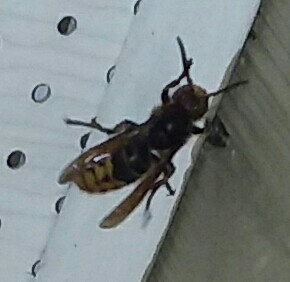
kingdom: Animalia
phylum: Arthropoda
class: Insecta
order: Hymenoptera
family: Vespidae
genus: Vespa
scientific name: Vespa crabro
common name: Hornet
